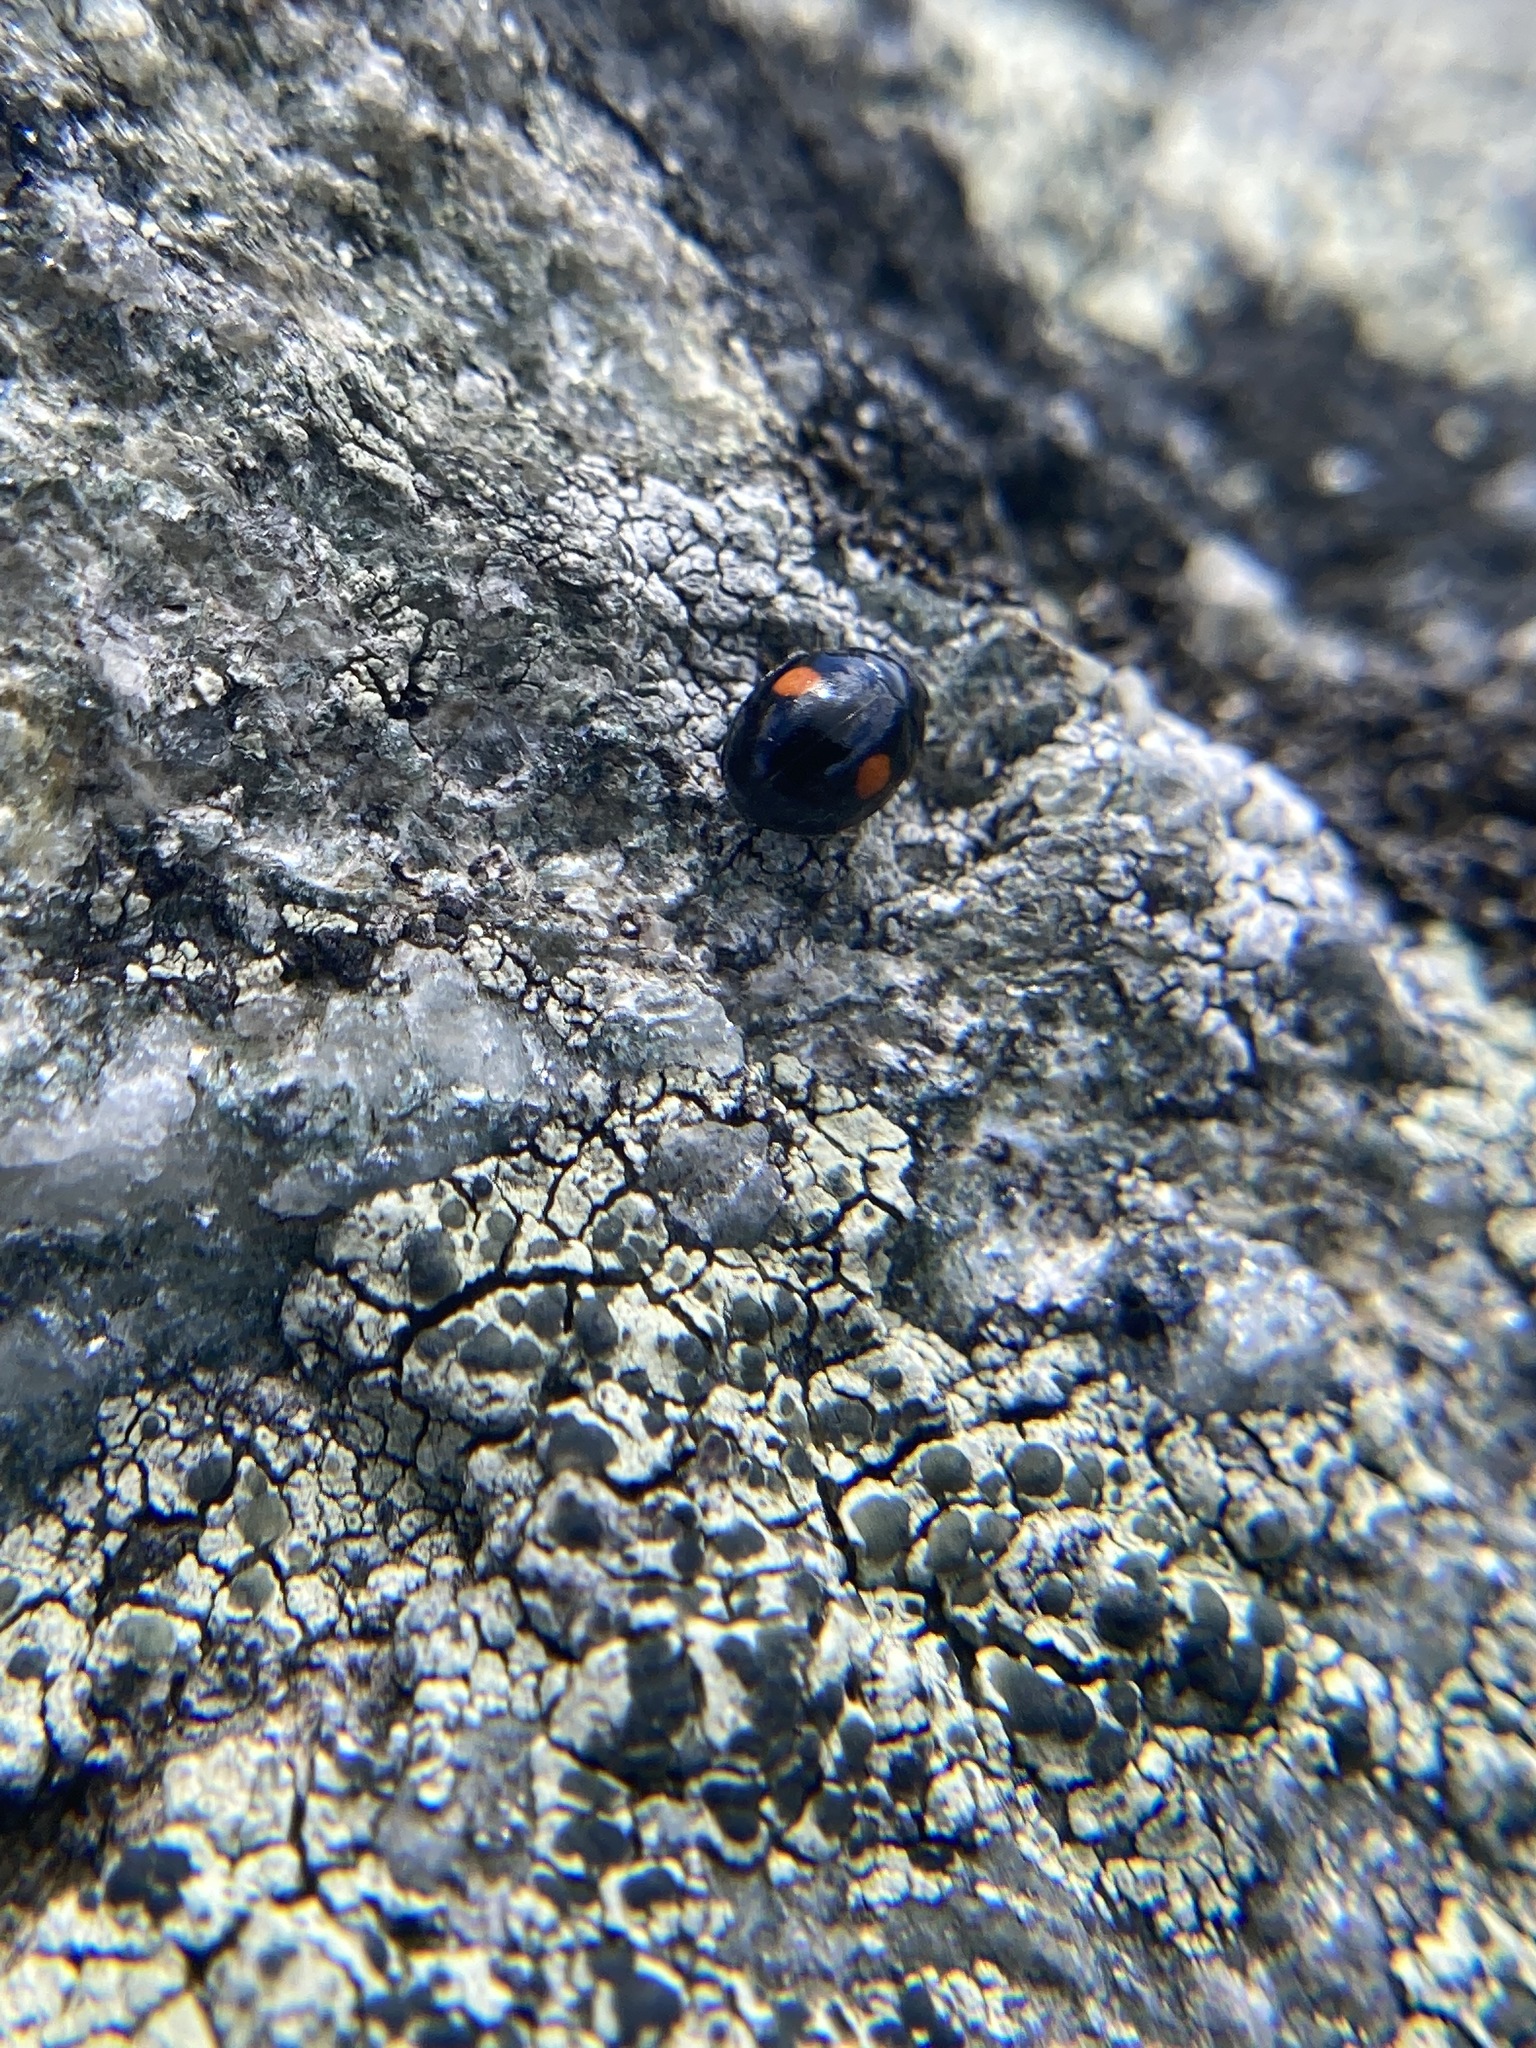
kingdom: Animalia
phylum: Arthropoda
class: Insecta
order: Coleoptera
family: Coccinellidae
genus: Hyperaspis
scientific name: Hyperaspis binotata
